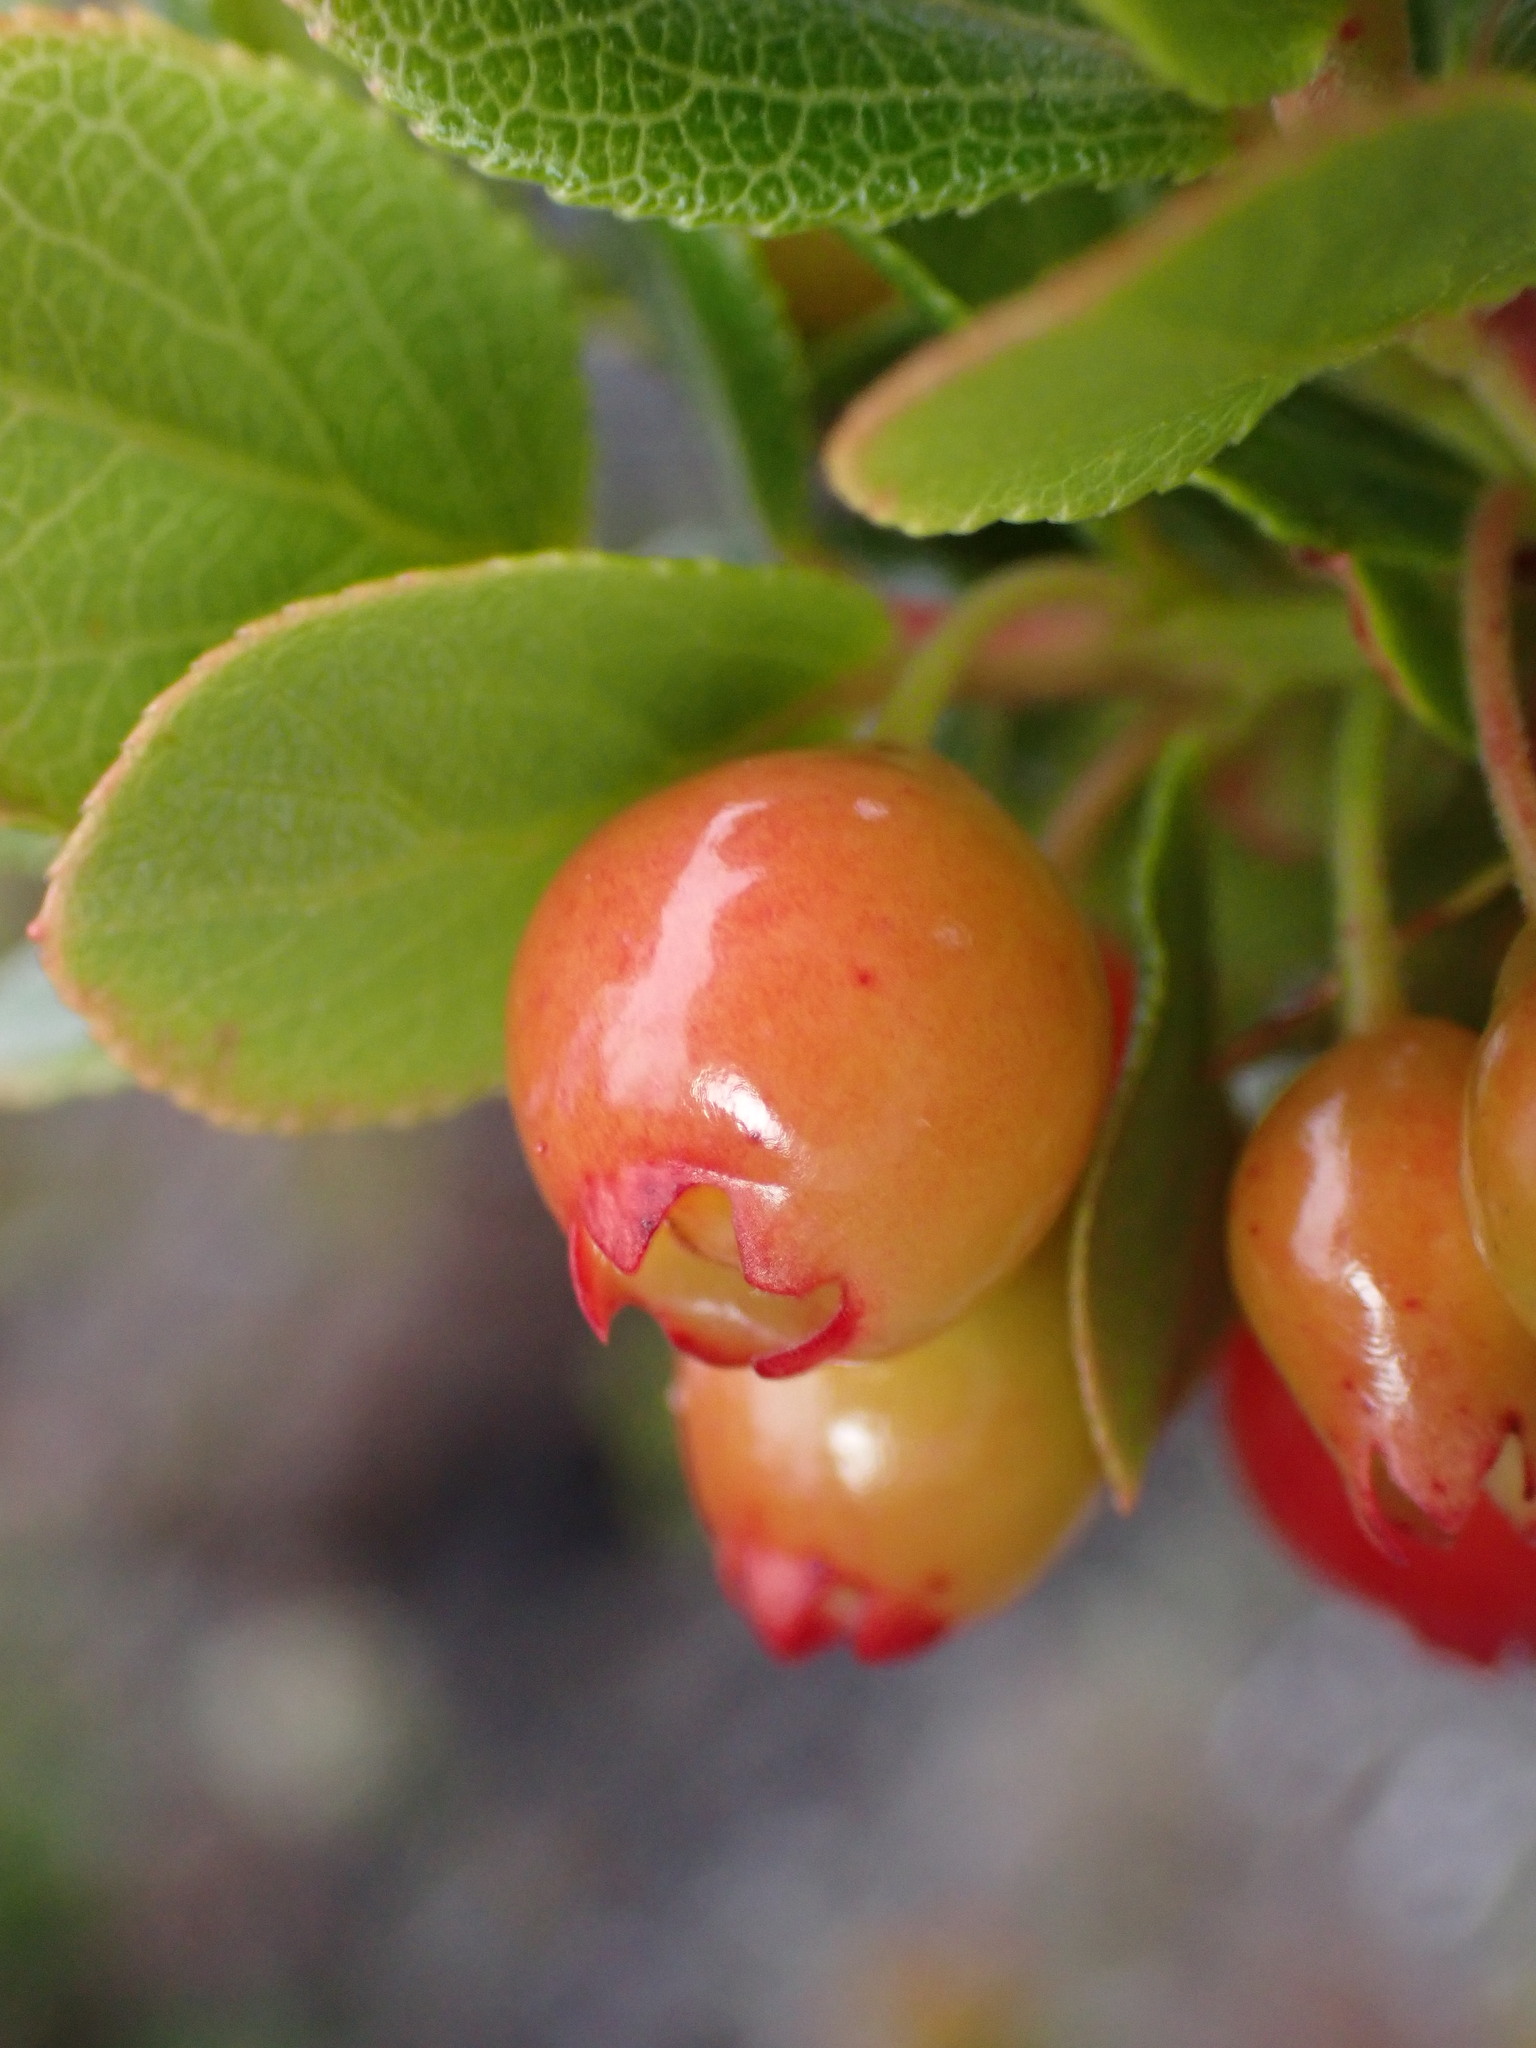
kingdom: Plantae
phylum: Tracheophyta
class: Magnoliopsida
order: Ericales
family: Ericaceae
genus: Vaccinium
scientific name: Vaccinium reticulatum
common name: Ohelo
